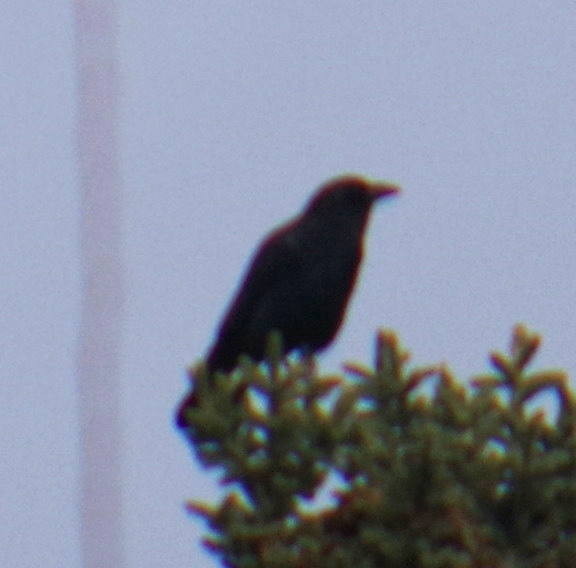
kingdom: Animalia
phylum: Chordata
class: Aves
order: Passeriformes
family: Corvidae
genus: Corvus
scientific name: Corvus brachyrhynchos
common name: American crow
